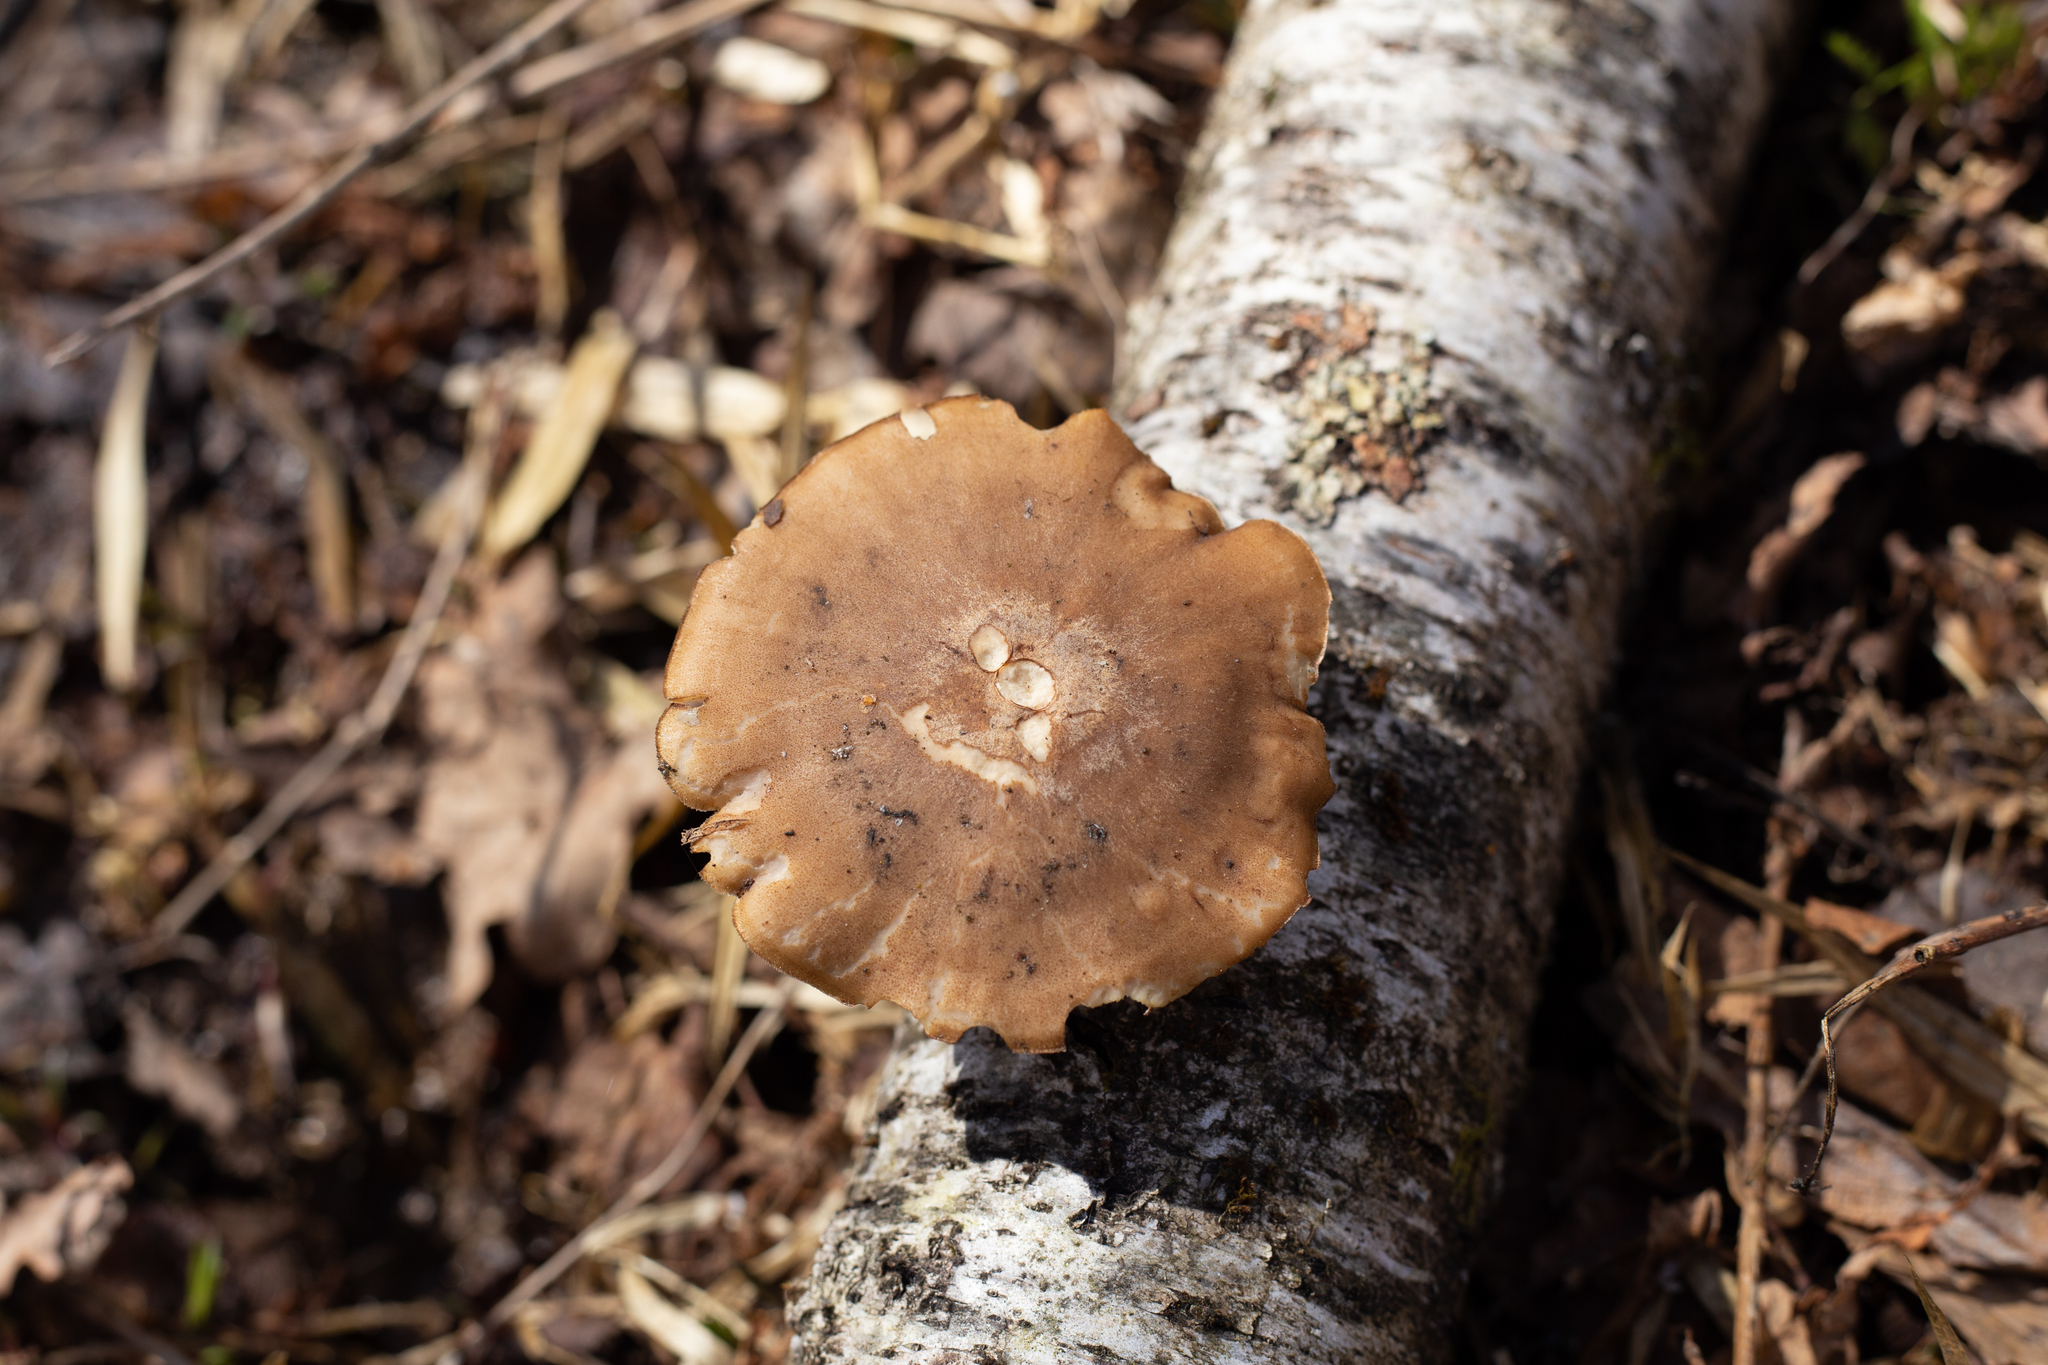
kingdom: Fungi
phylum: Basidiomycota
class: Agaricomycetes
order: Polyporales
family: Polyporaceae
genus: Lentinus
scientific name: Lentinus brumalis
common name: Winter polypore
